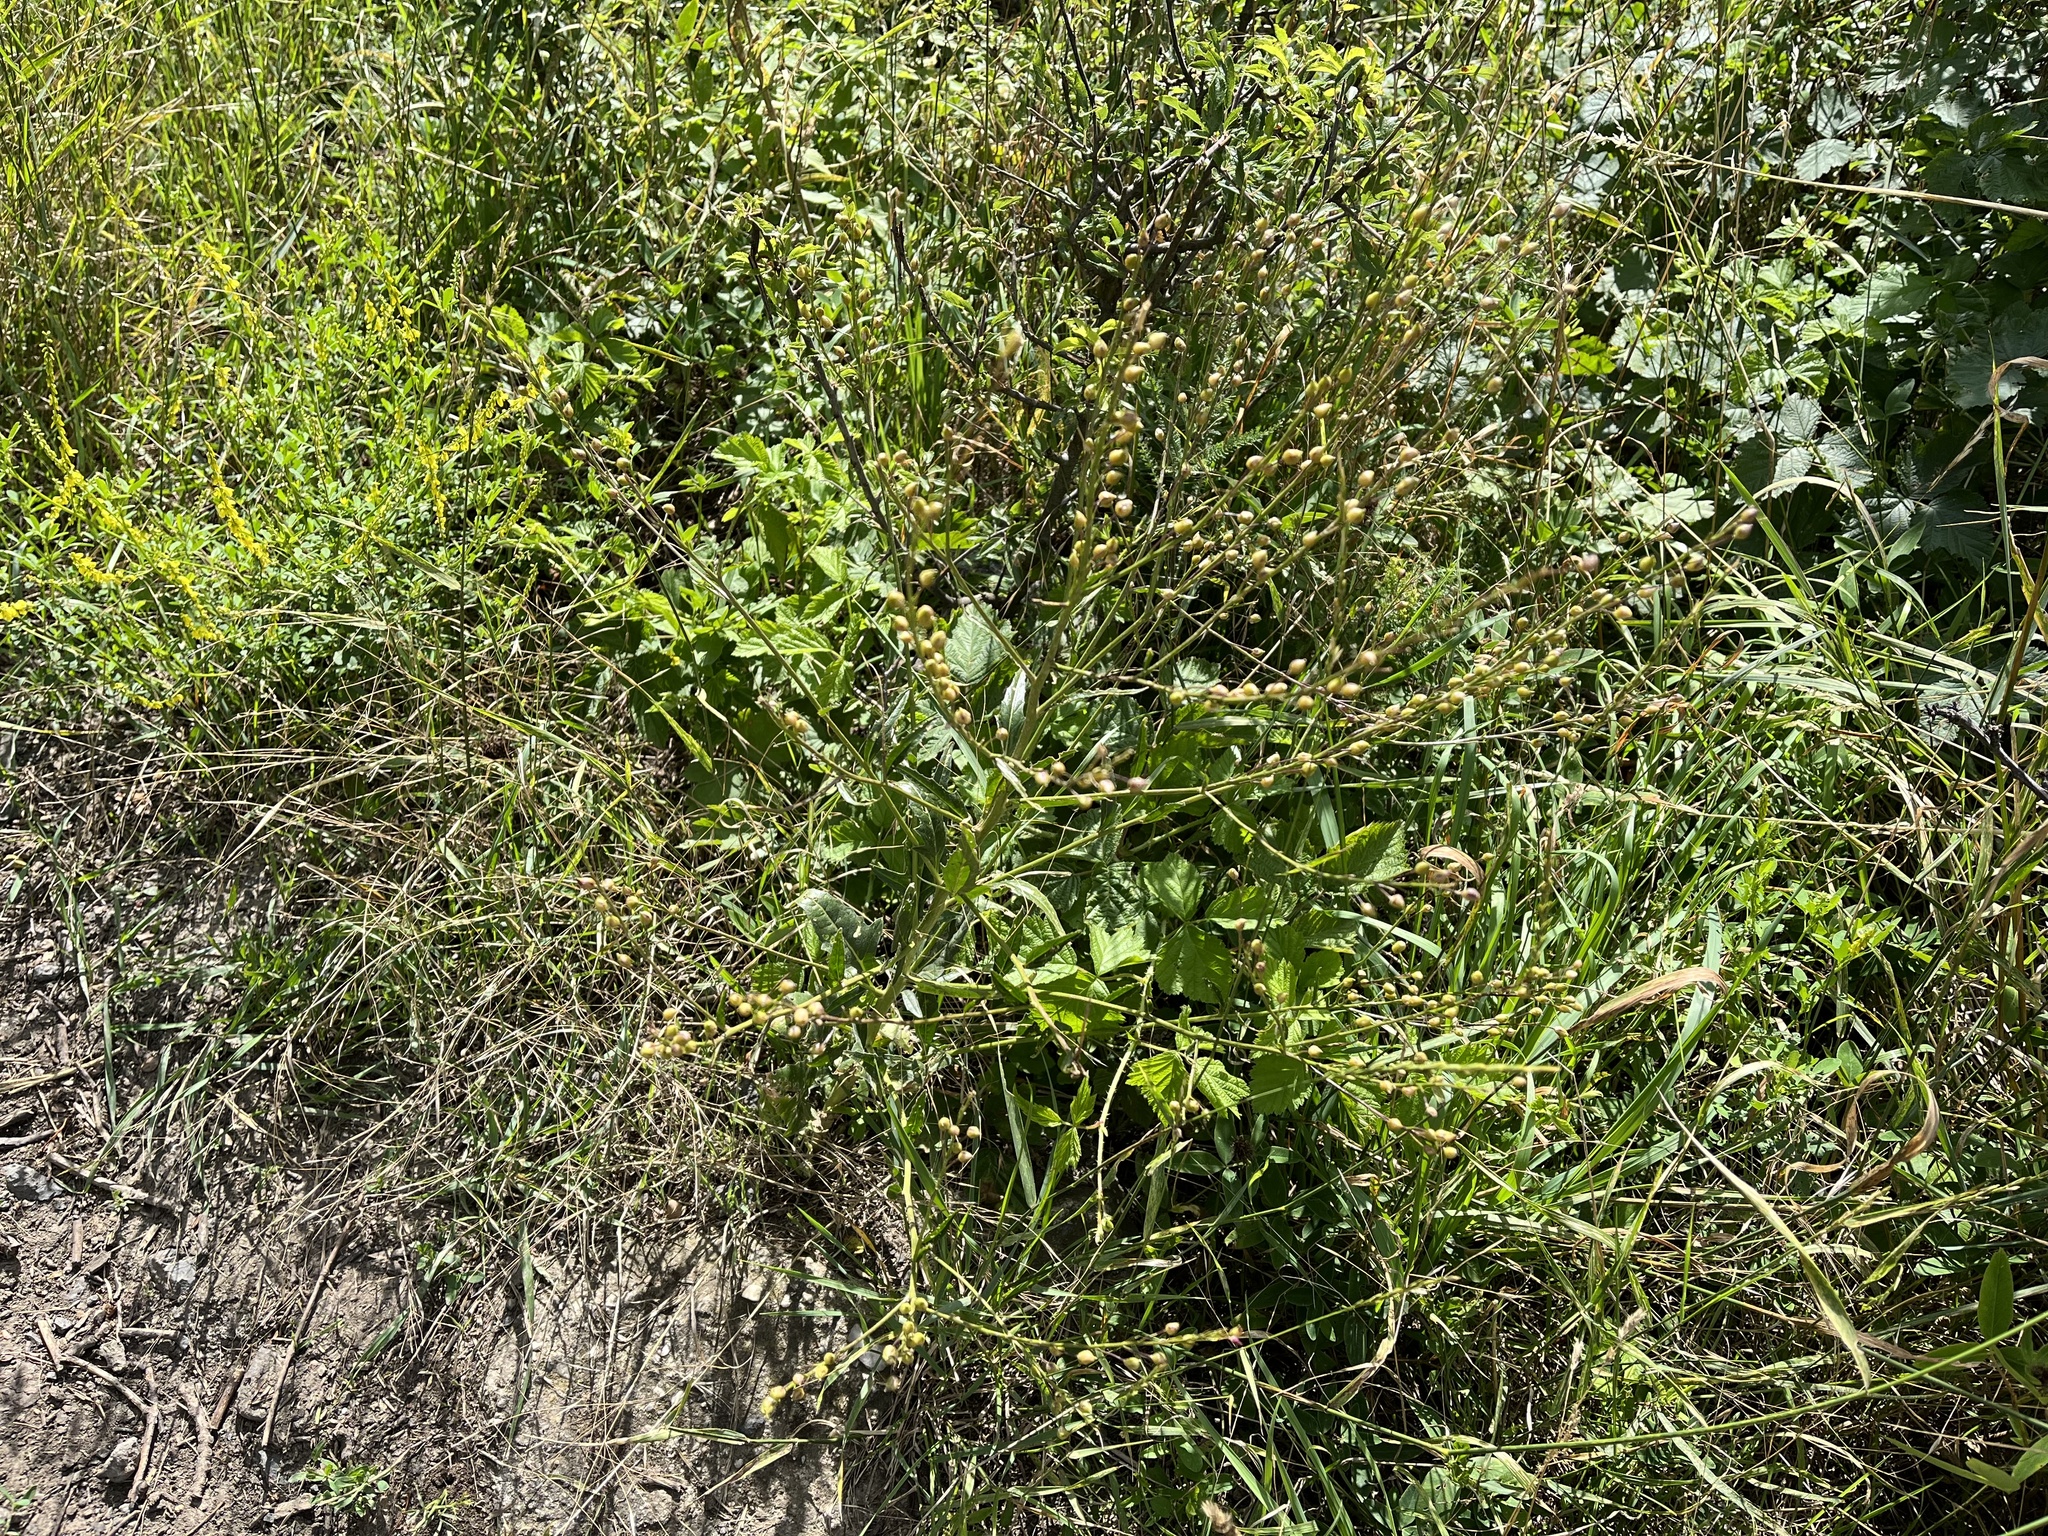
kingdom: Plantae
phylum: Tracheophyta
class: Magnoliopsida
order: Brassicales
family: Brassicaceae
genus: Bunias
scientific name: Bunias orientalis
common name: Warty-cabbage
